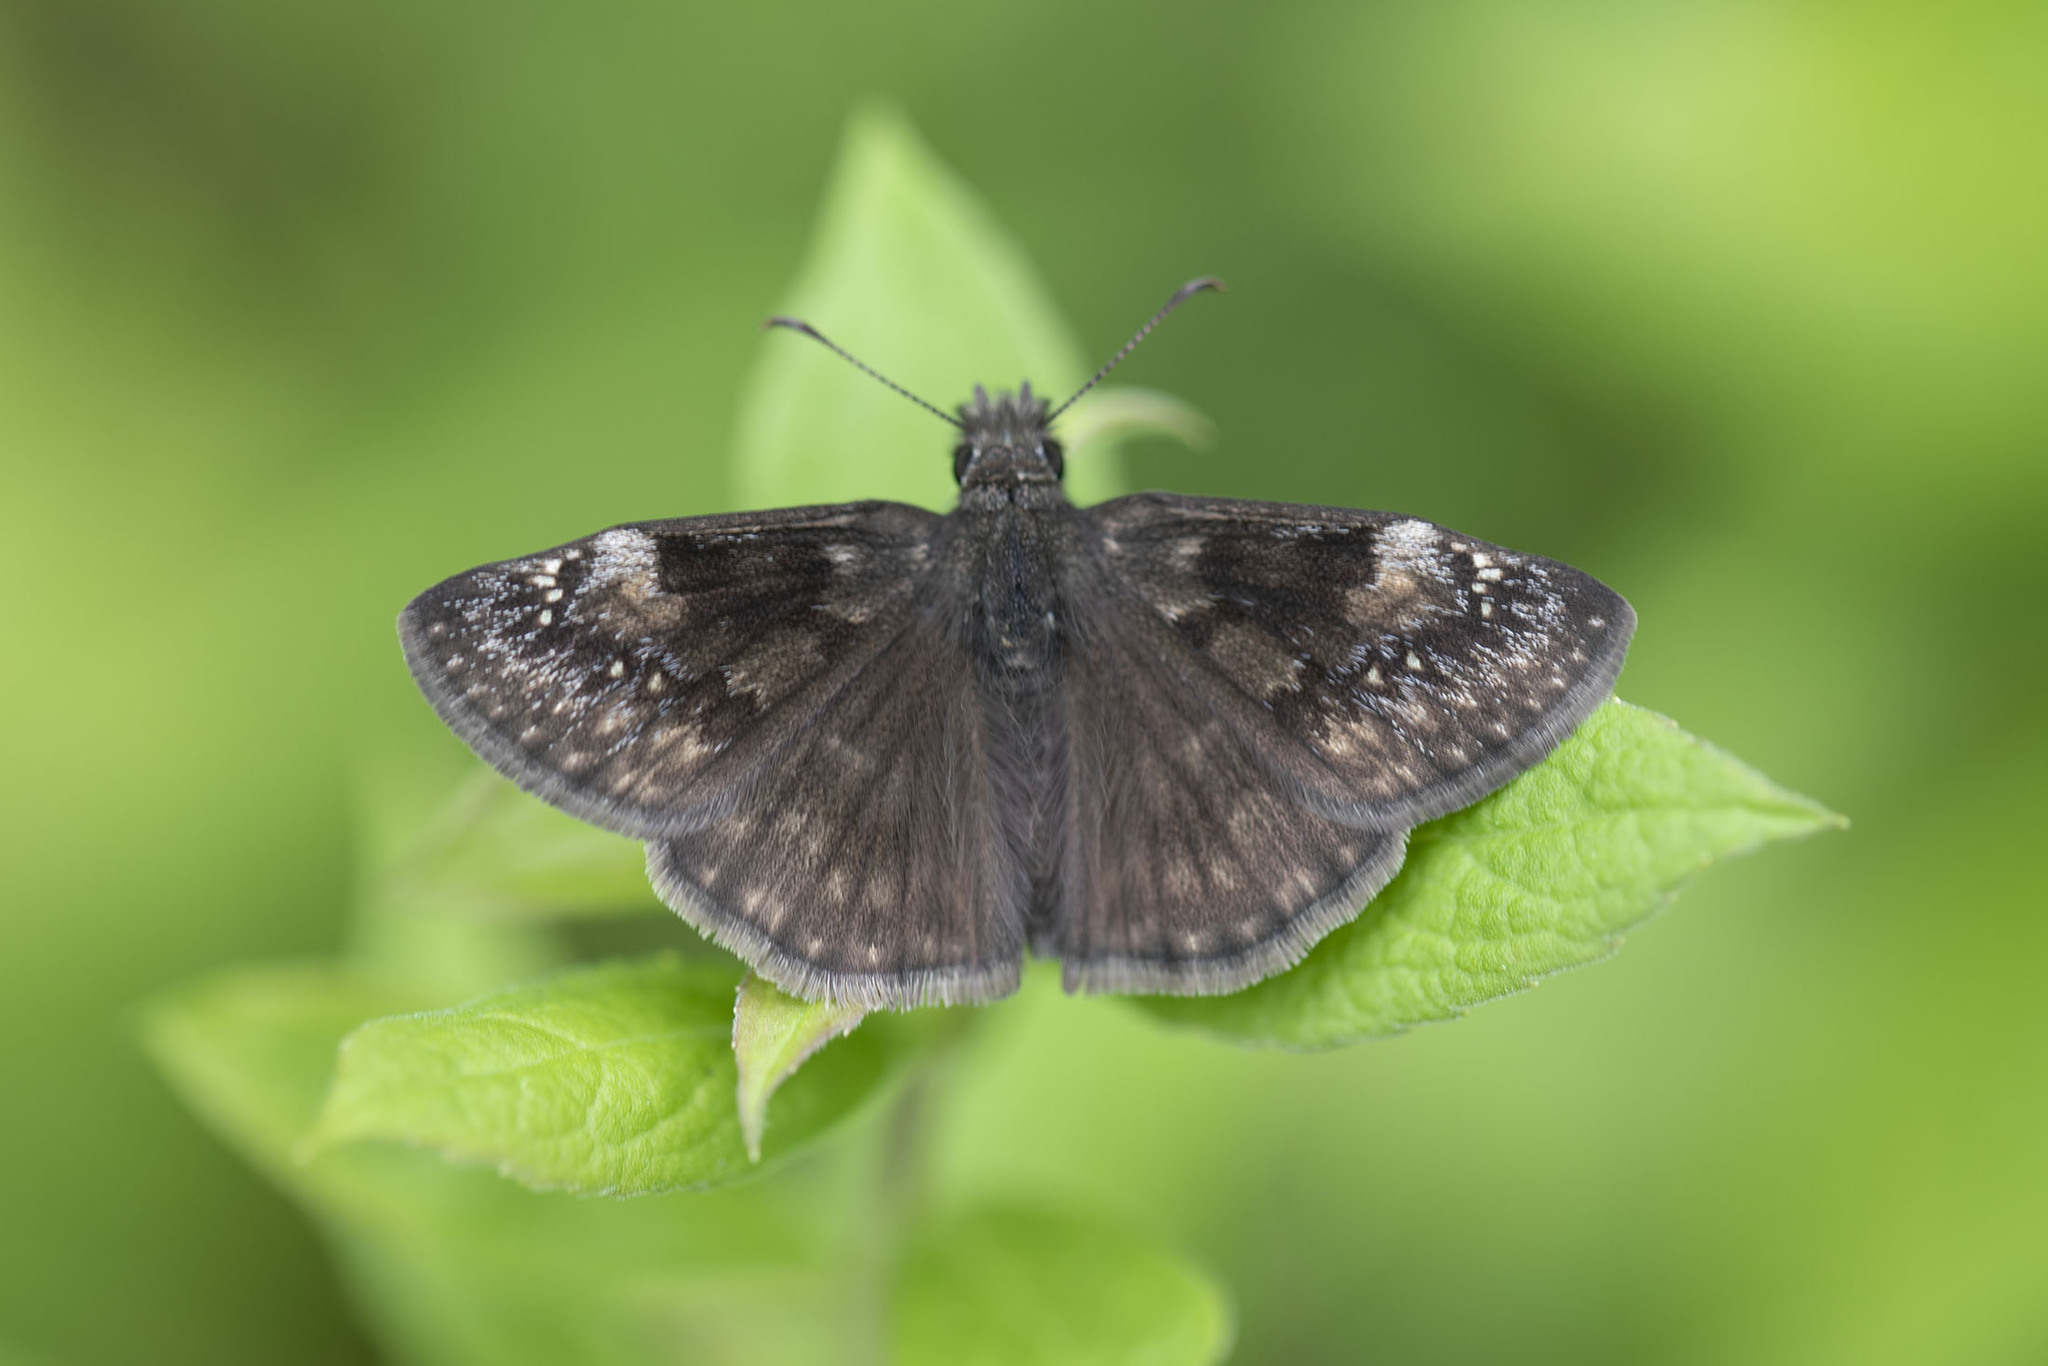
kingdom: Animalia
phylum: Arthropoda
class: Insecta
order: Lepidoptera
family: Hesperiidae
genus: Erynnis
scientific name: Erynnis baptisiae
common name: Wild indigo duskywing
